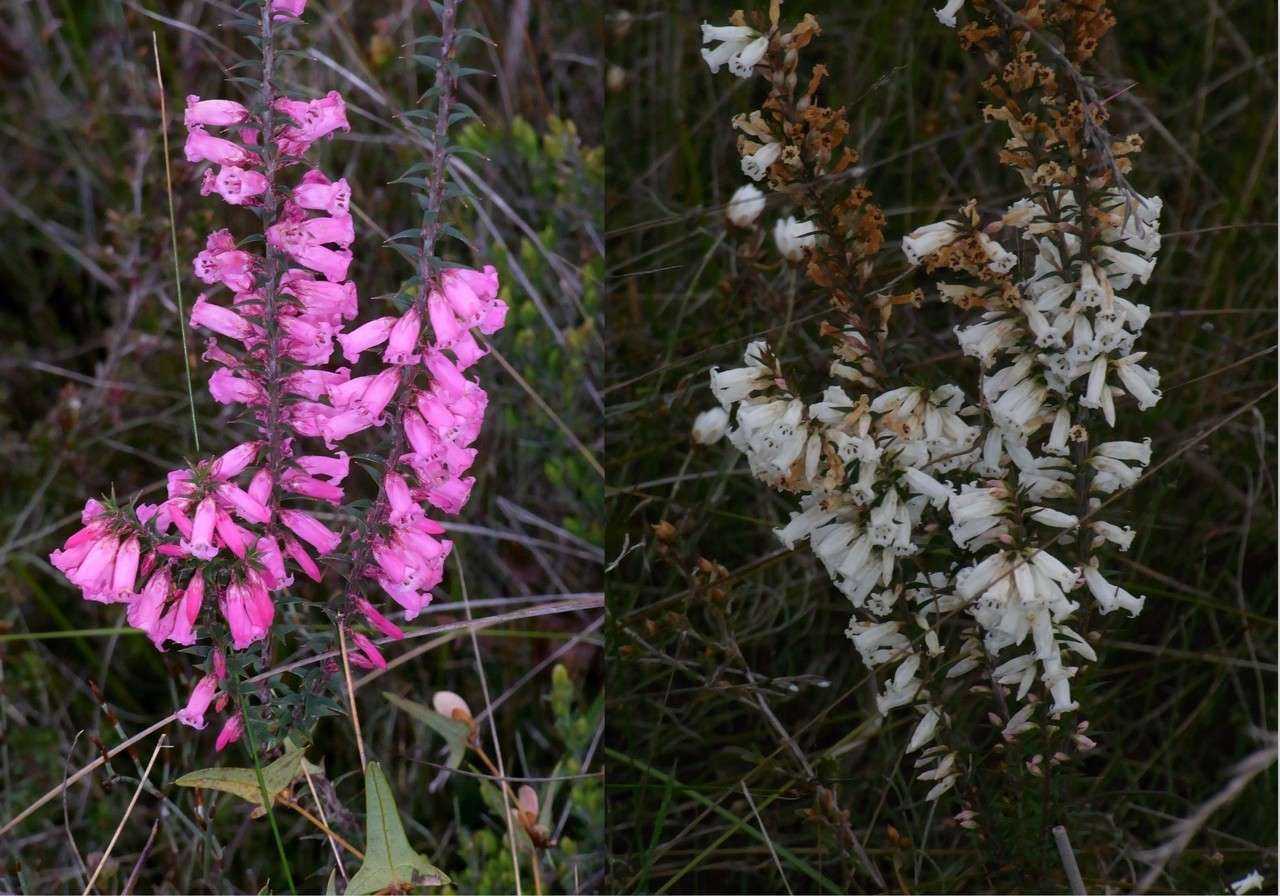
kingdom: Plantae
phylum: Tracheophyta
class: Magnoliopsida
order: Ericales
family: Ericaceae
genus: Epacris
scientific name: Epacris impressa
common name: Common-heath
